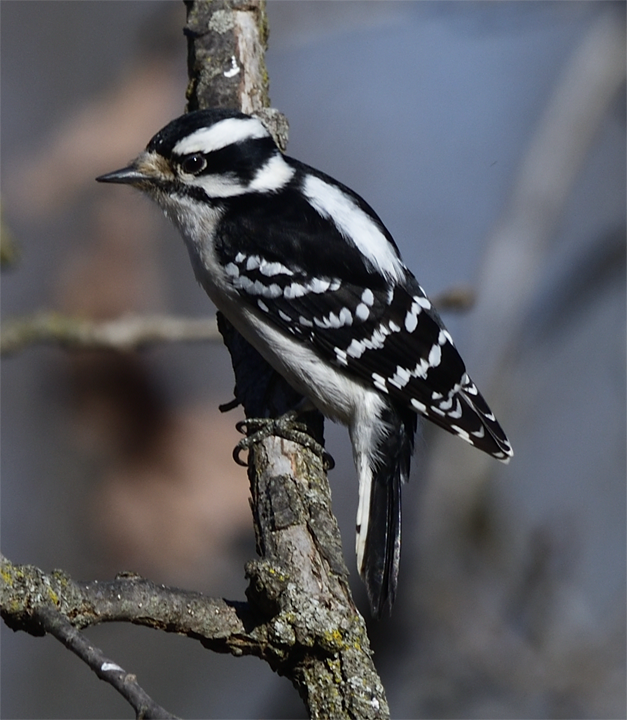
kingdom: Animalia
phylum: Chordata
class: Aves
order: Piciformes
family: Picidae
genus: Dryobates
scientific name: Dryobates pubescens
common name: Downy woodpecker
